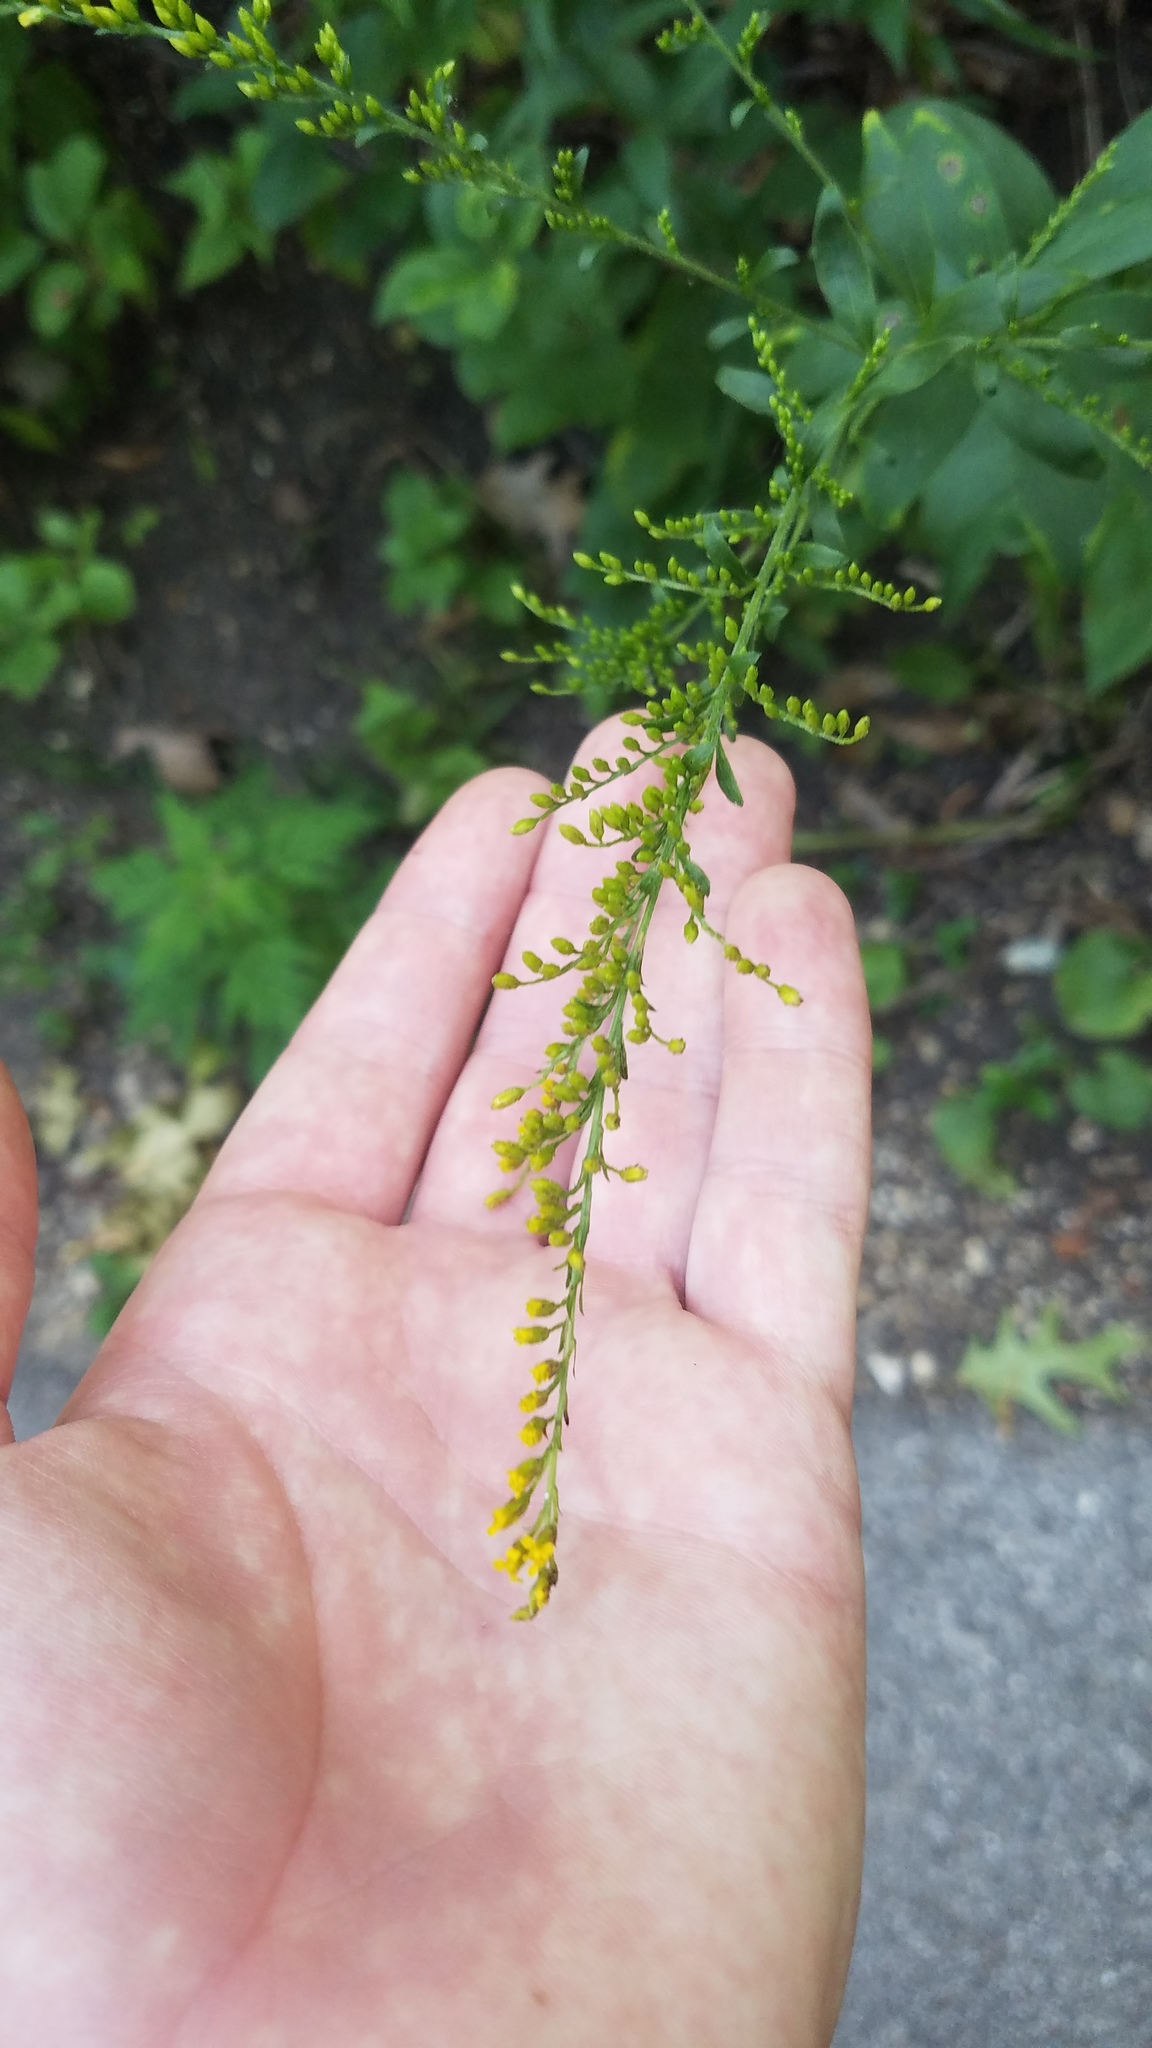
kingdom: Plantae
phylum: Tracheophyta
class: Magnoliopsida
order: Asterales
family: Asteraceae
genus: Solidago
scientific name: Solidago ulmifolia
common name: Elm-leaf goldenrod
